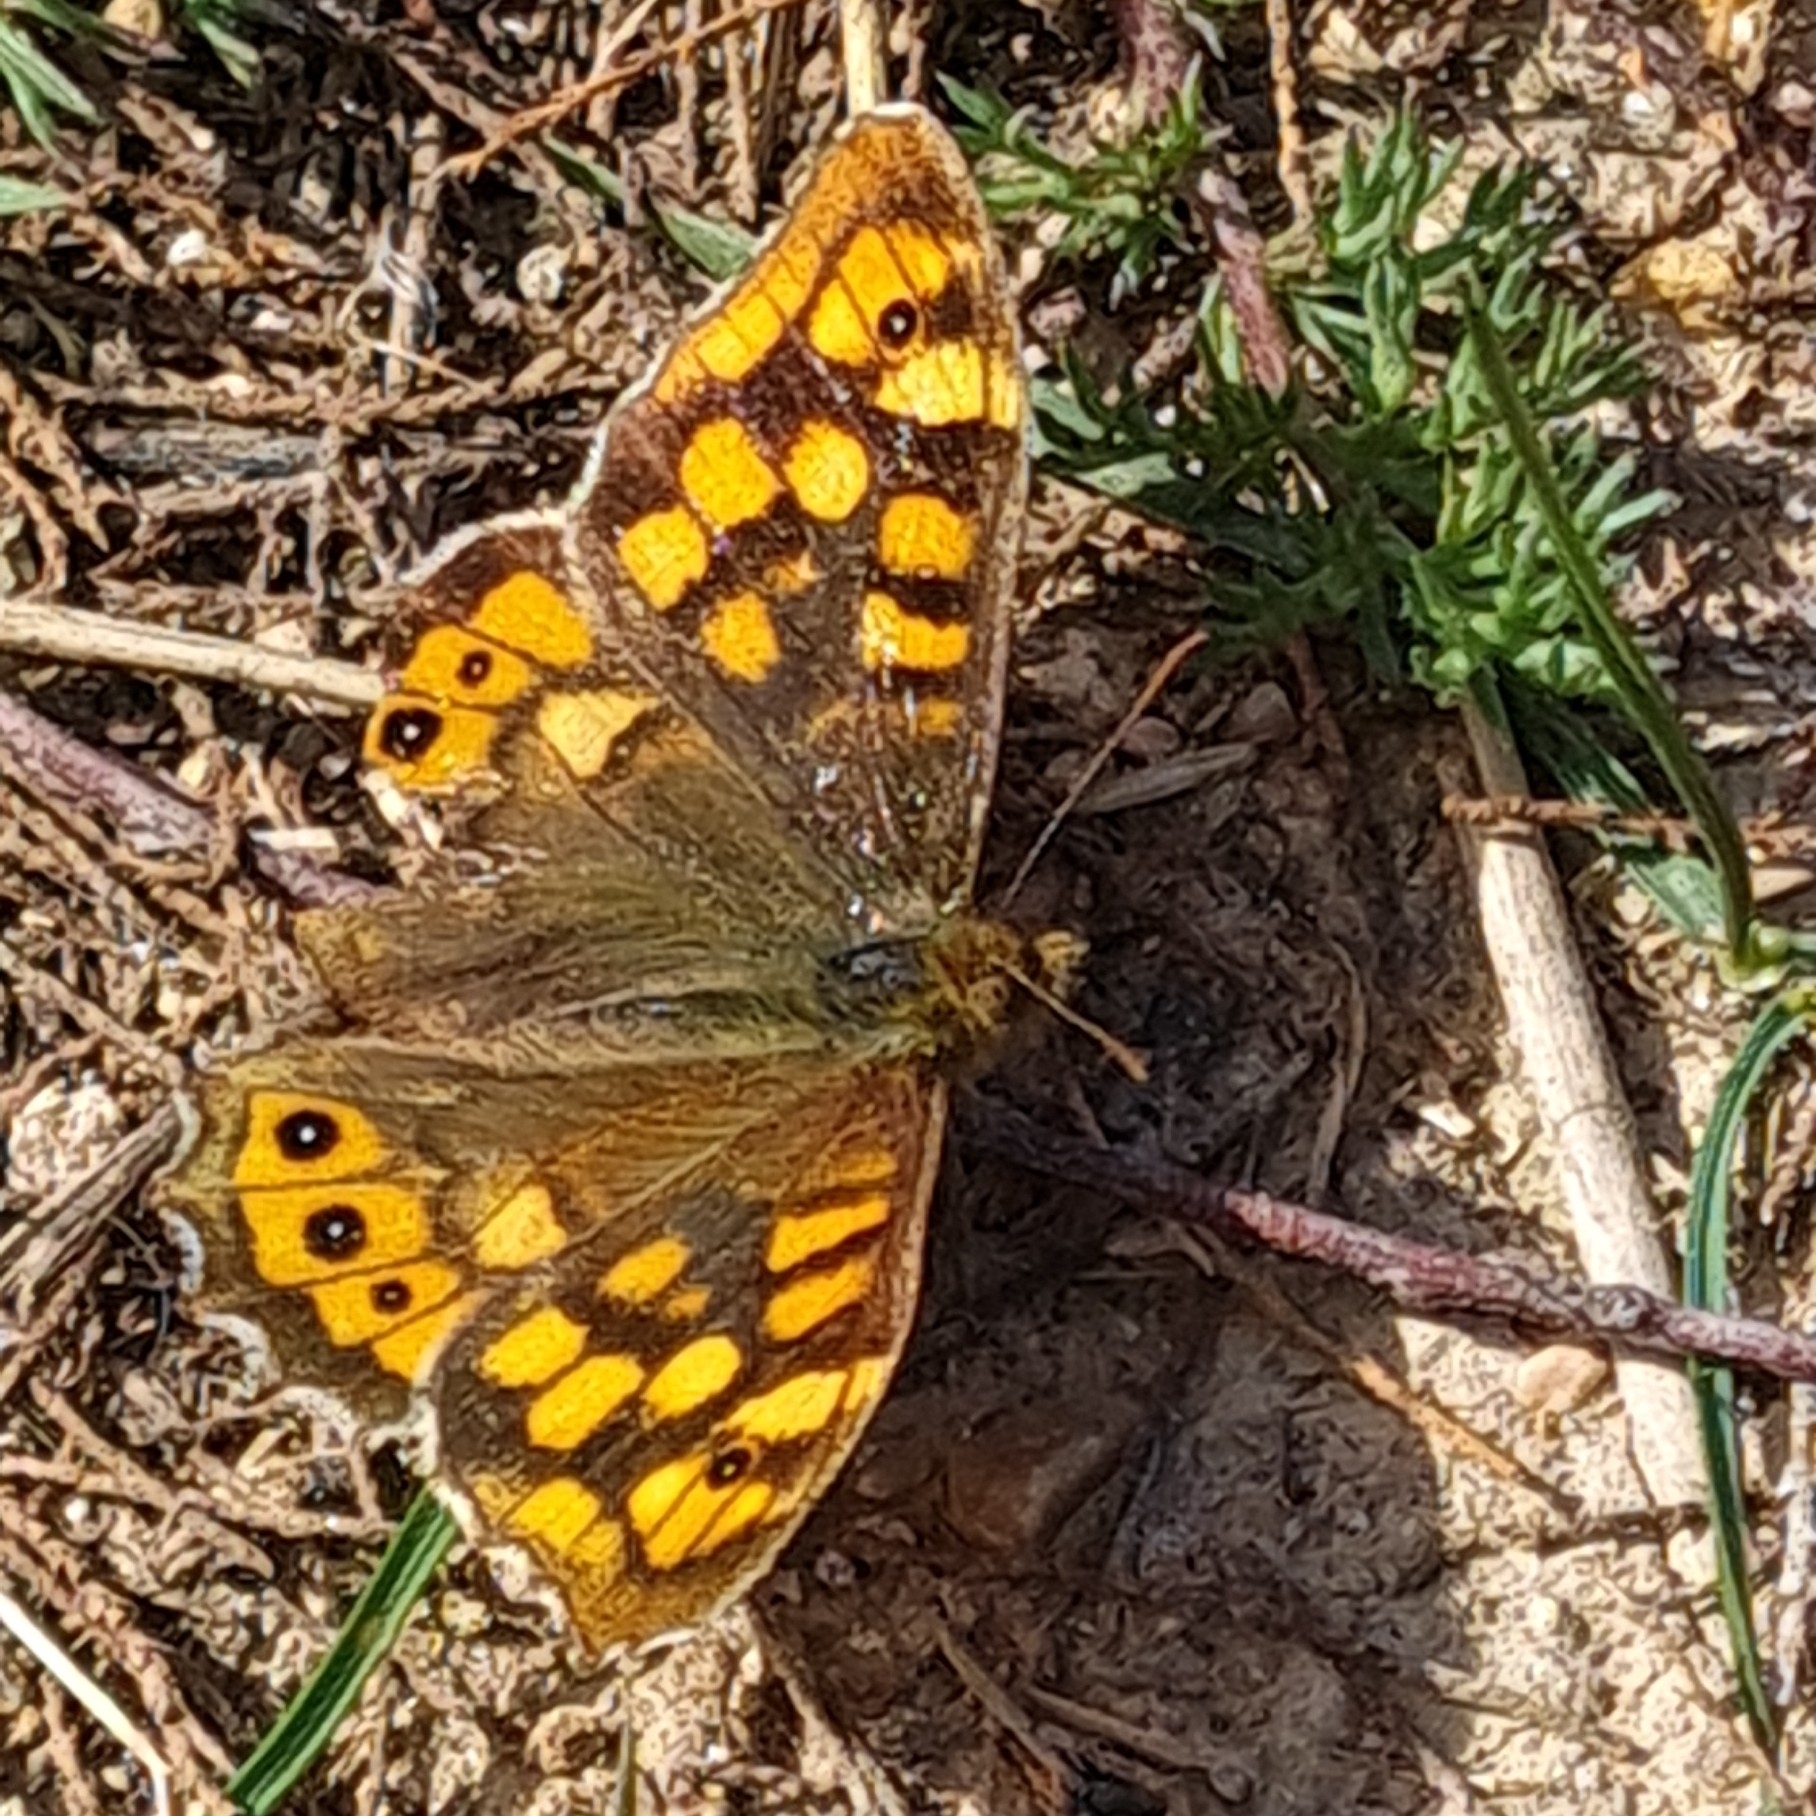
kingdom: Animalia
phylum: Arthropoda
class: Insecta
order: Lepidoptera
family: Nymphalidae
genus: Pararge
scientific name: Pararge aegeria
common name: Speckled wood
